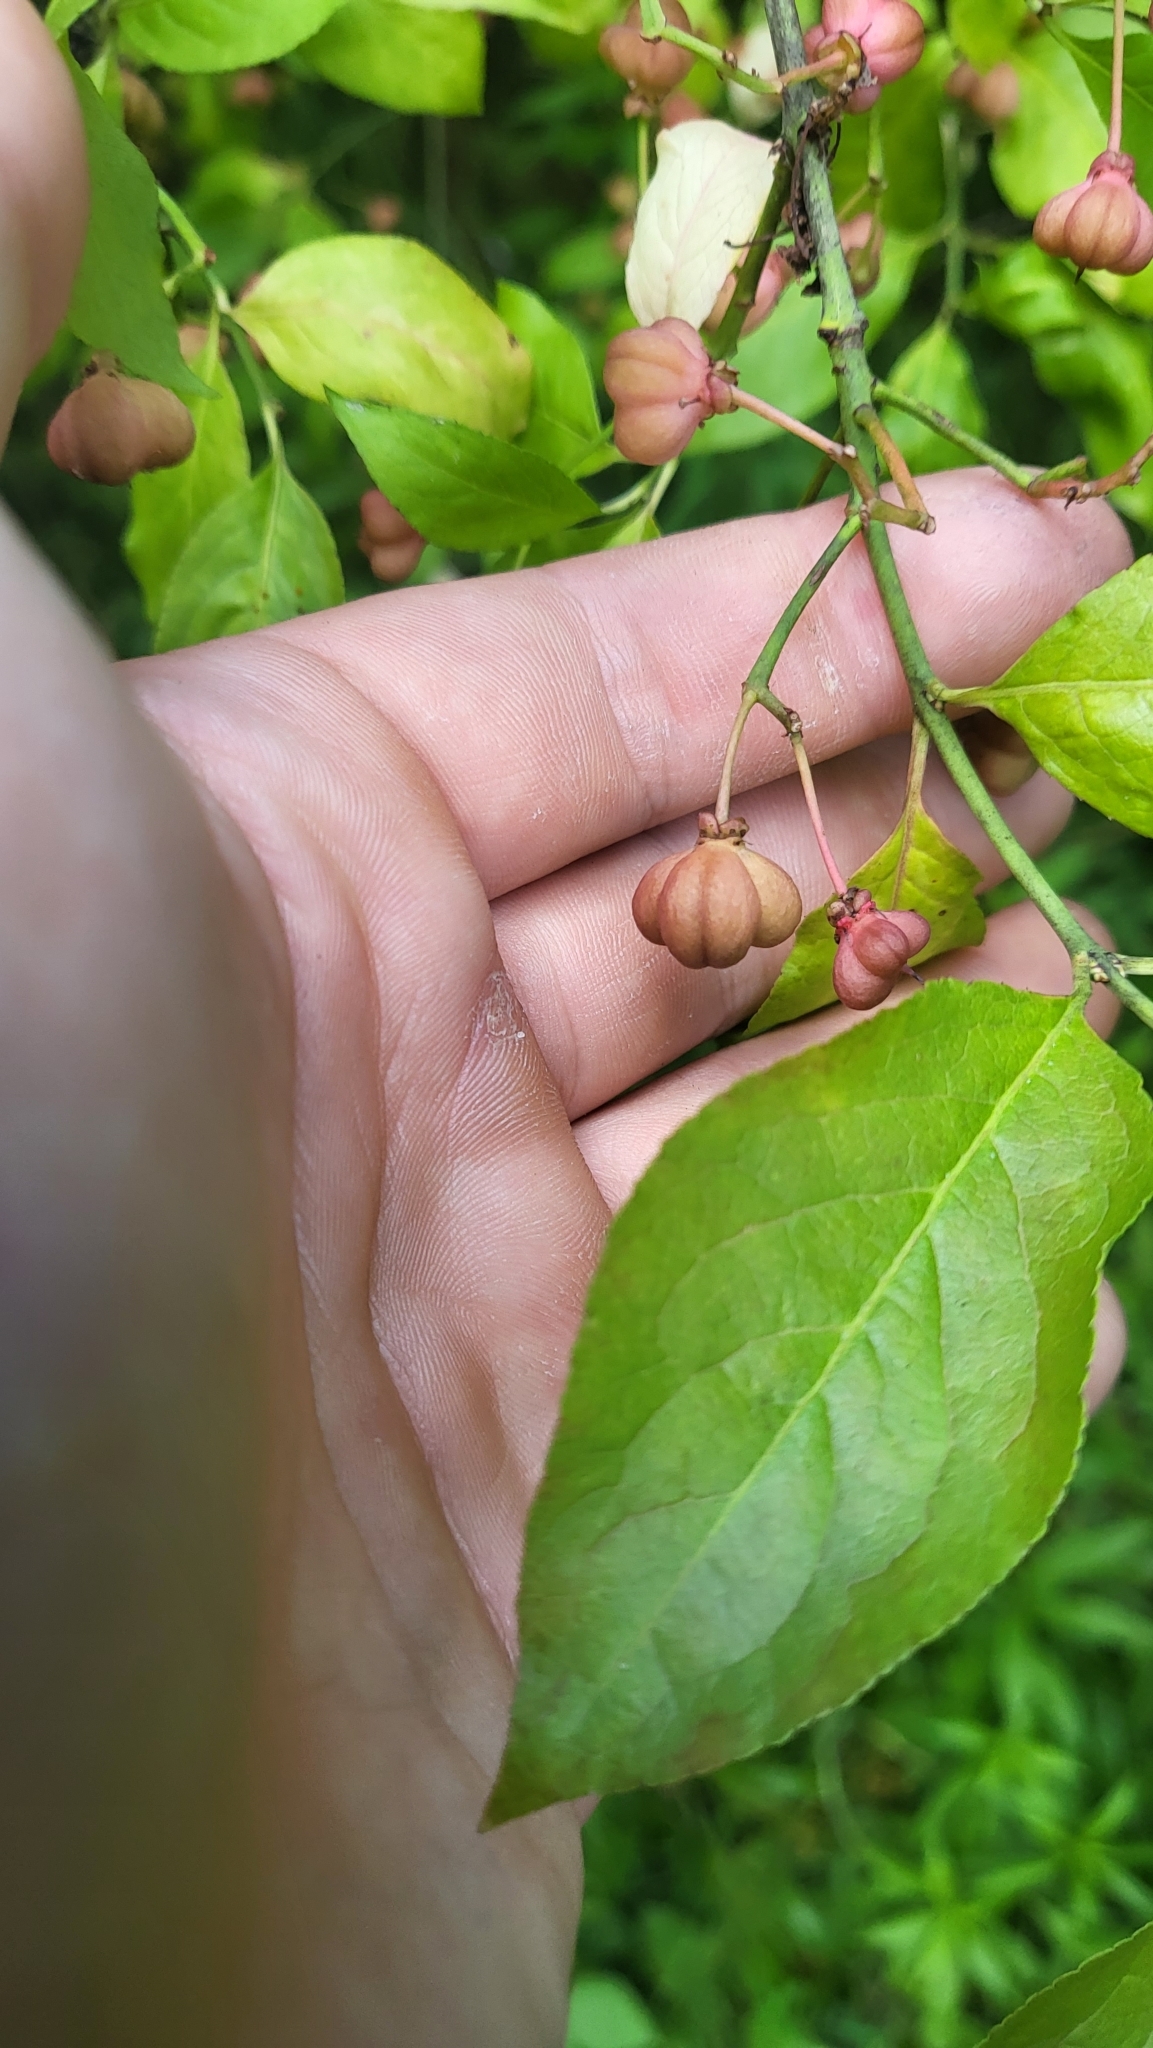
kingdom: Plantae
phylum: Tracheophyta
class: Magnoliopsida
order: Celastrales
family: Celastraceae
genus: Euonymus
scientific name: Euonymus europaeus
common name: Spindle
